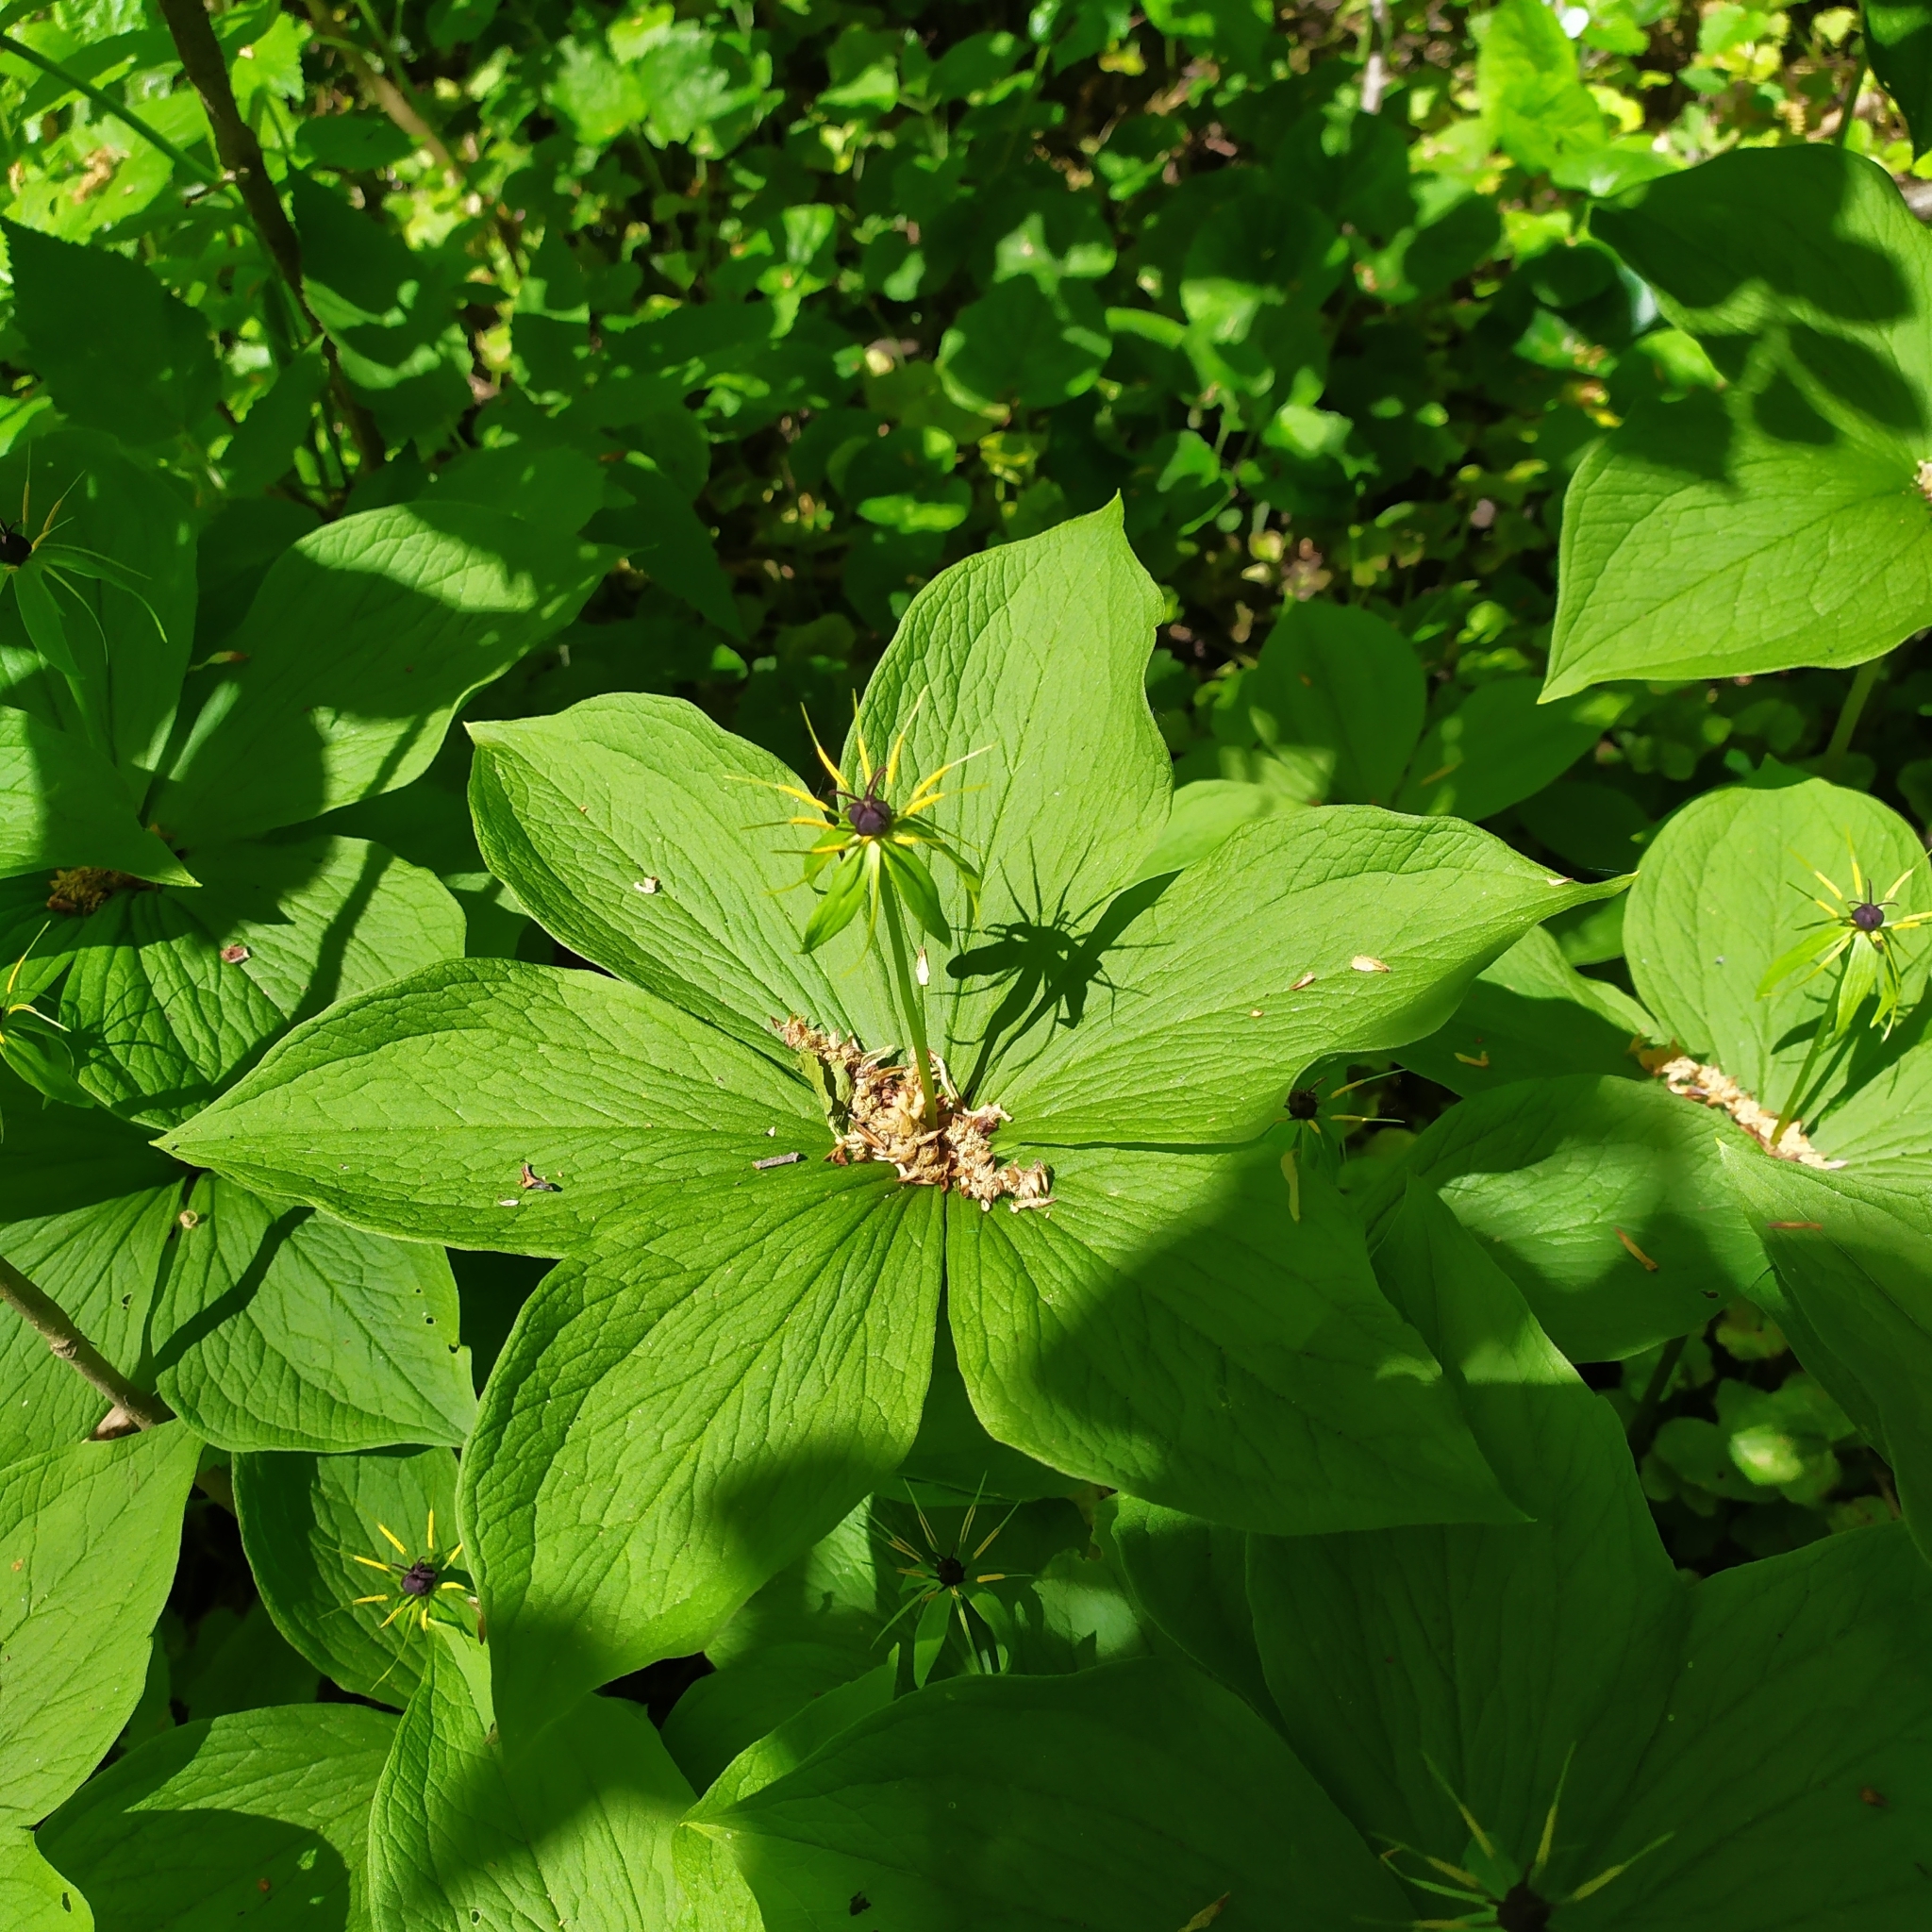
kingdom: Plantae
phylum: Tracheophyta
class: Liliopsida
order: Liliales
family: Melanthiaceae
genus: Paris
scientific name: Paris quadrifolia
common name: Herb-paris
